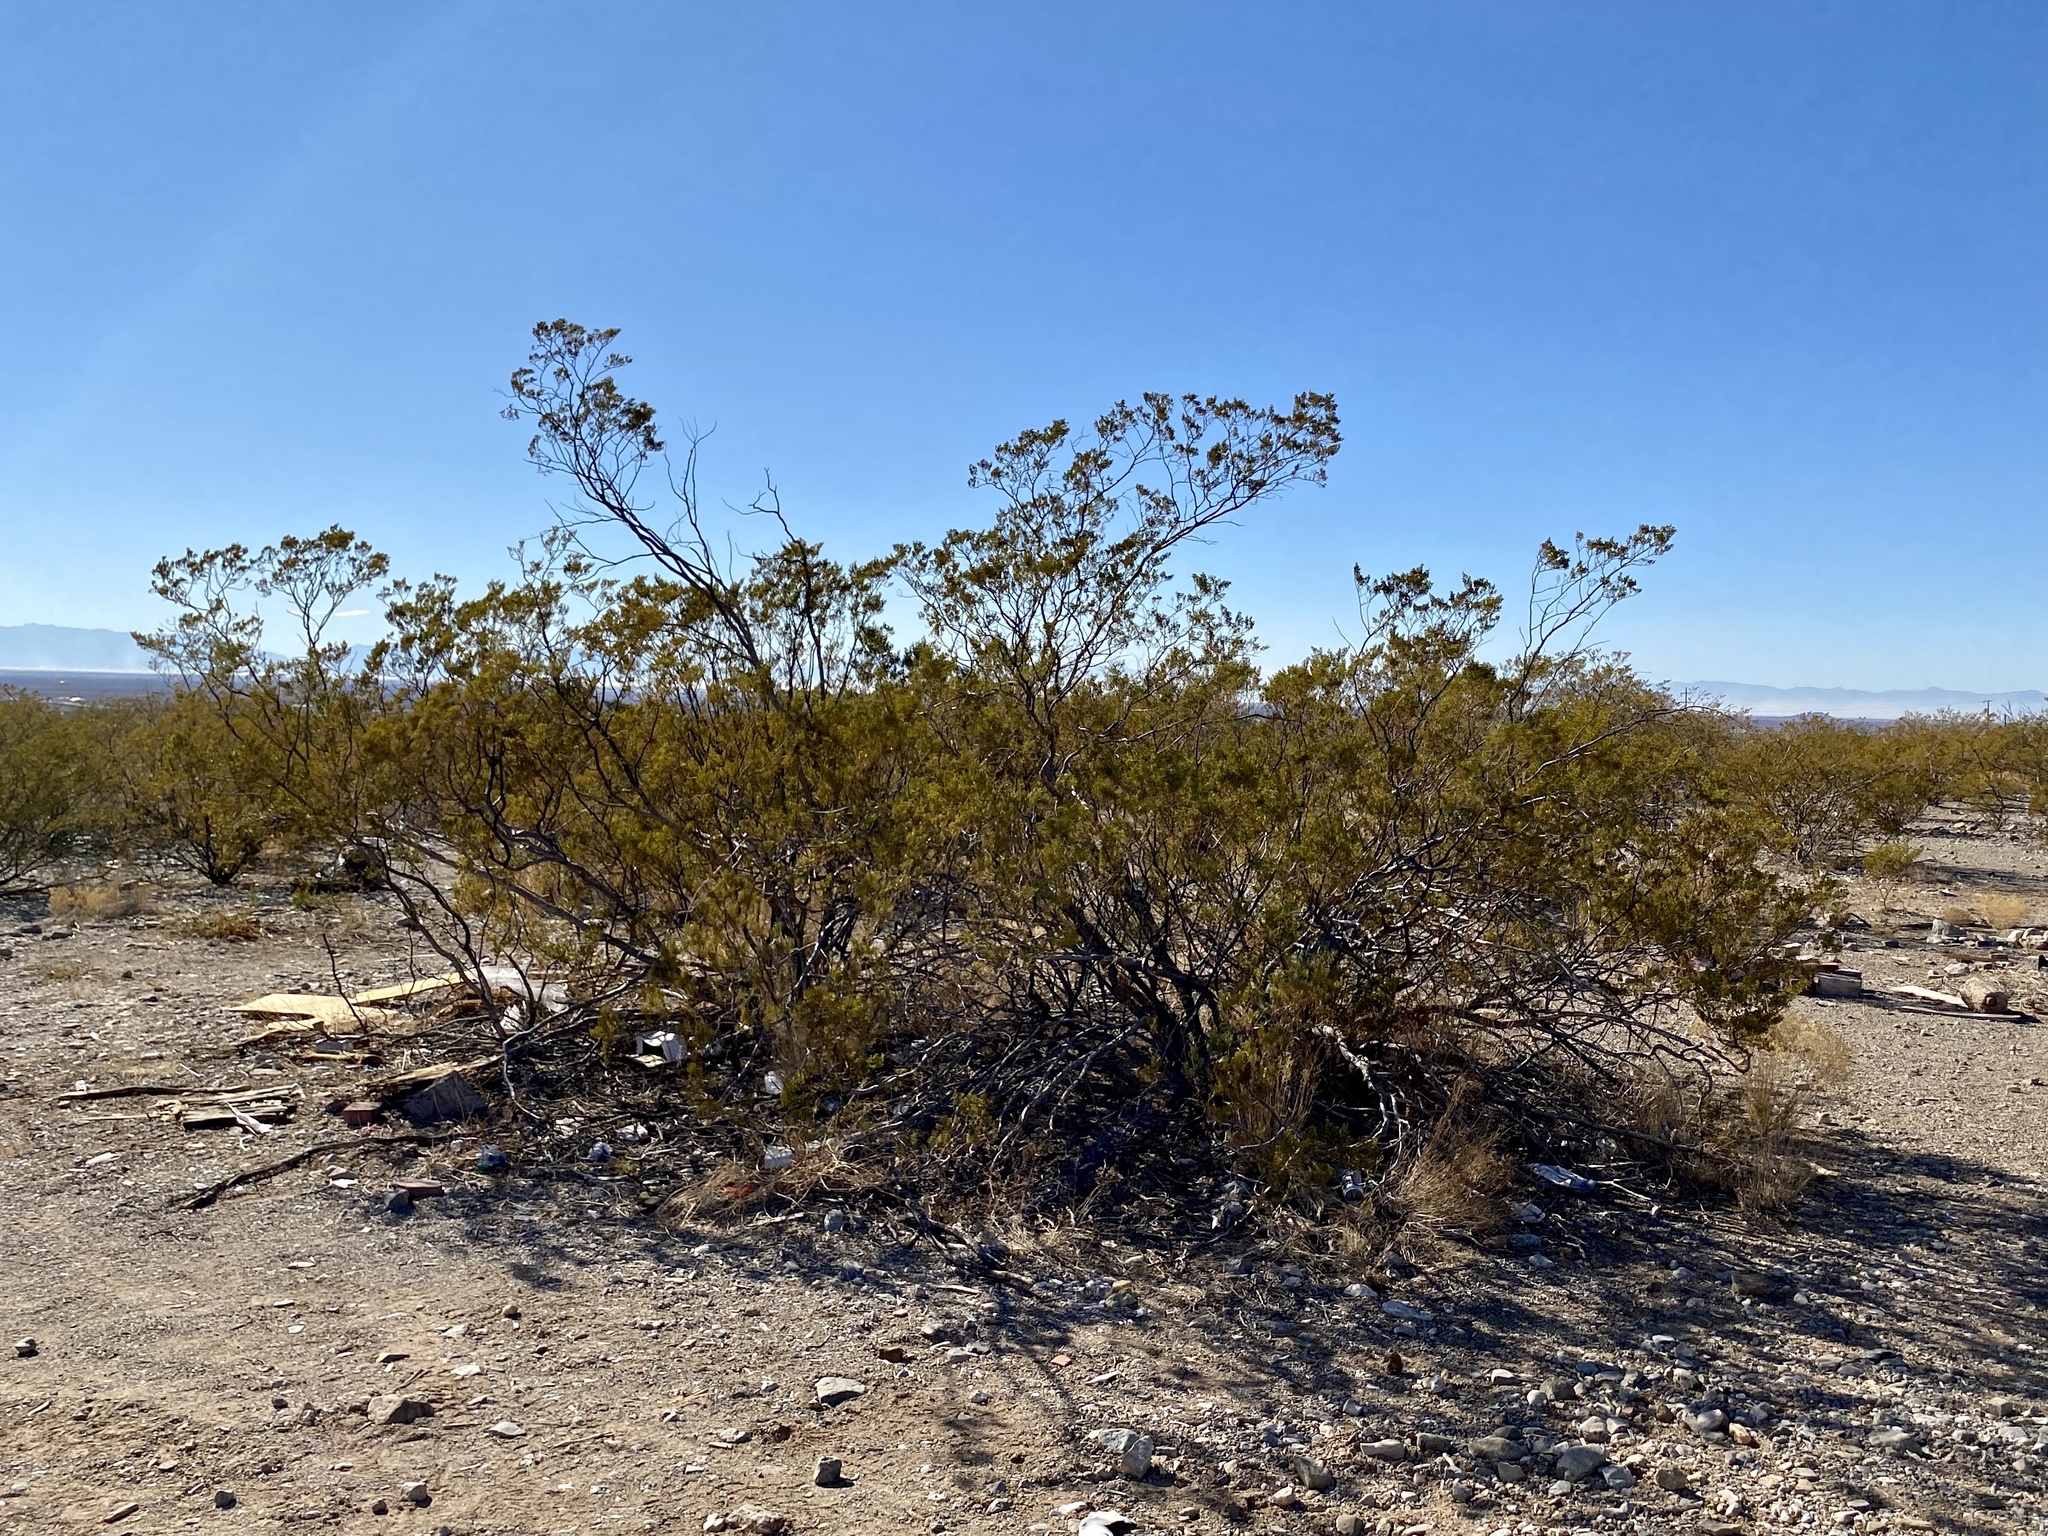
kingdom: Plantae
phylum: Tracheophyta
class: Magnoliopsida
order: Zygophyllales
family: Zygophyllaceae
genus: Larrea
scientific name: Larrea tridentata
